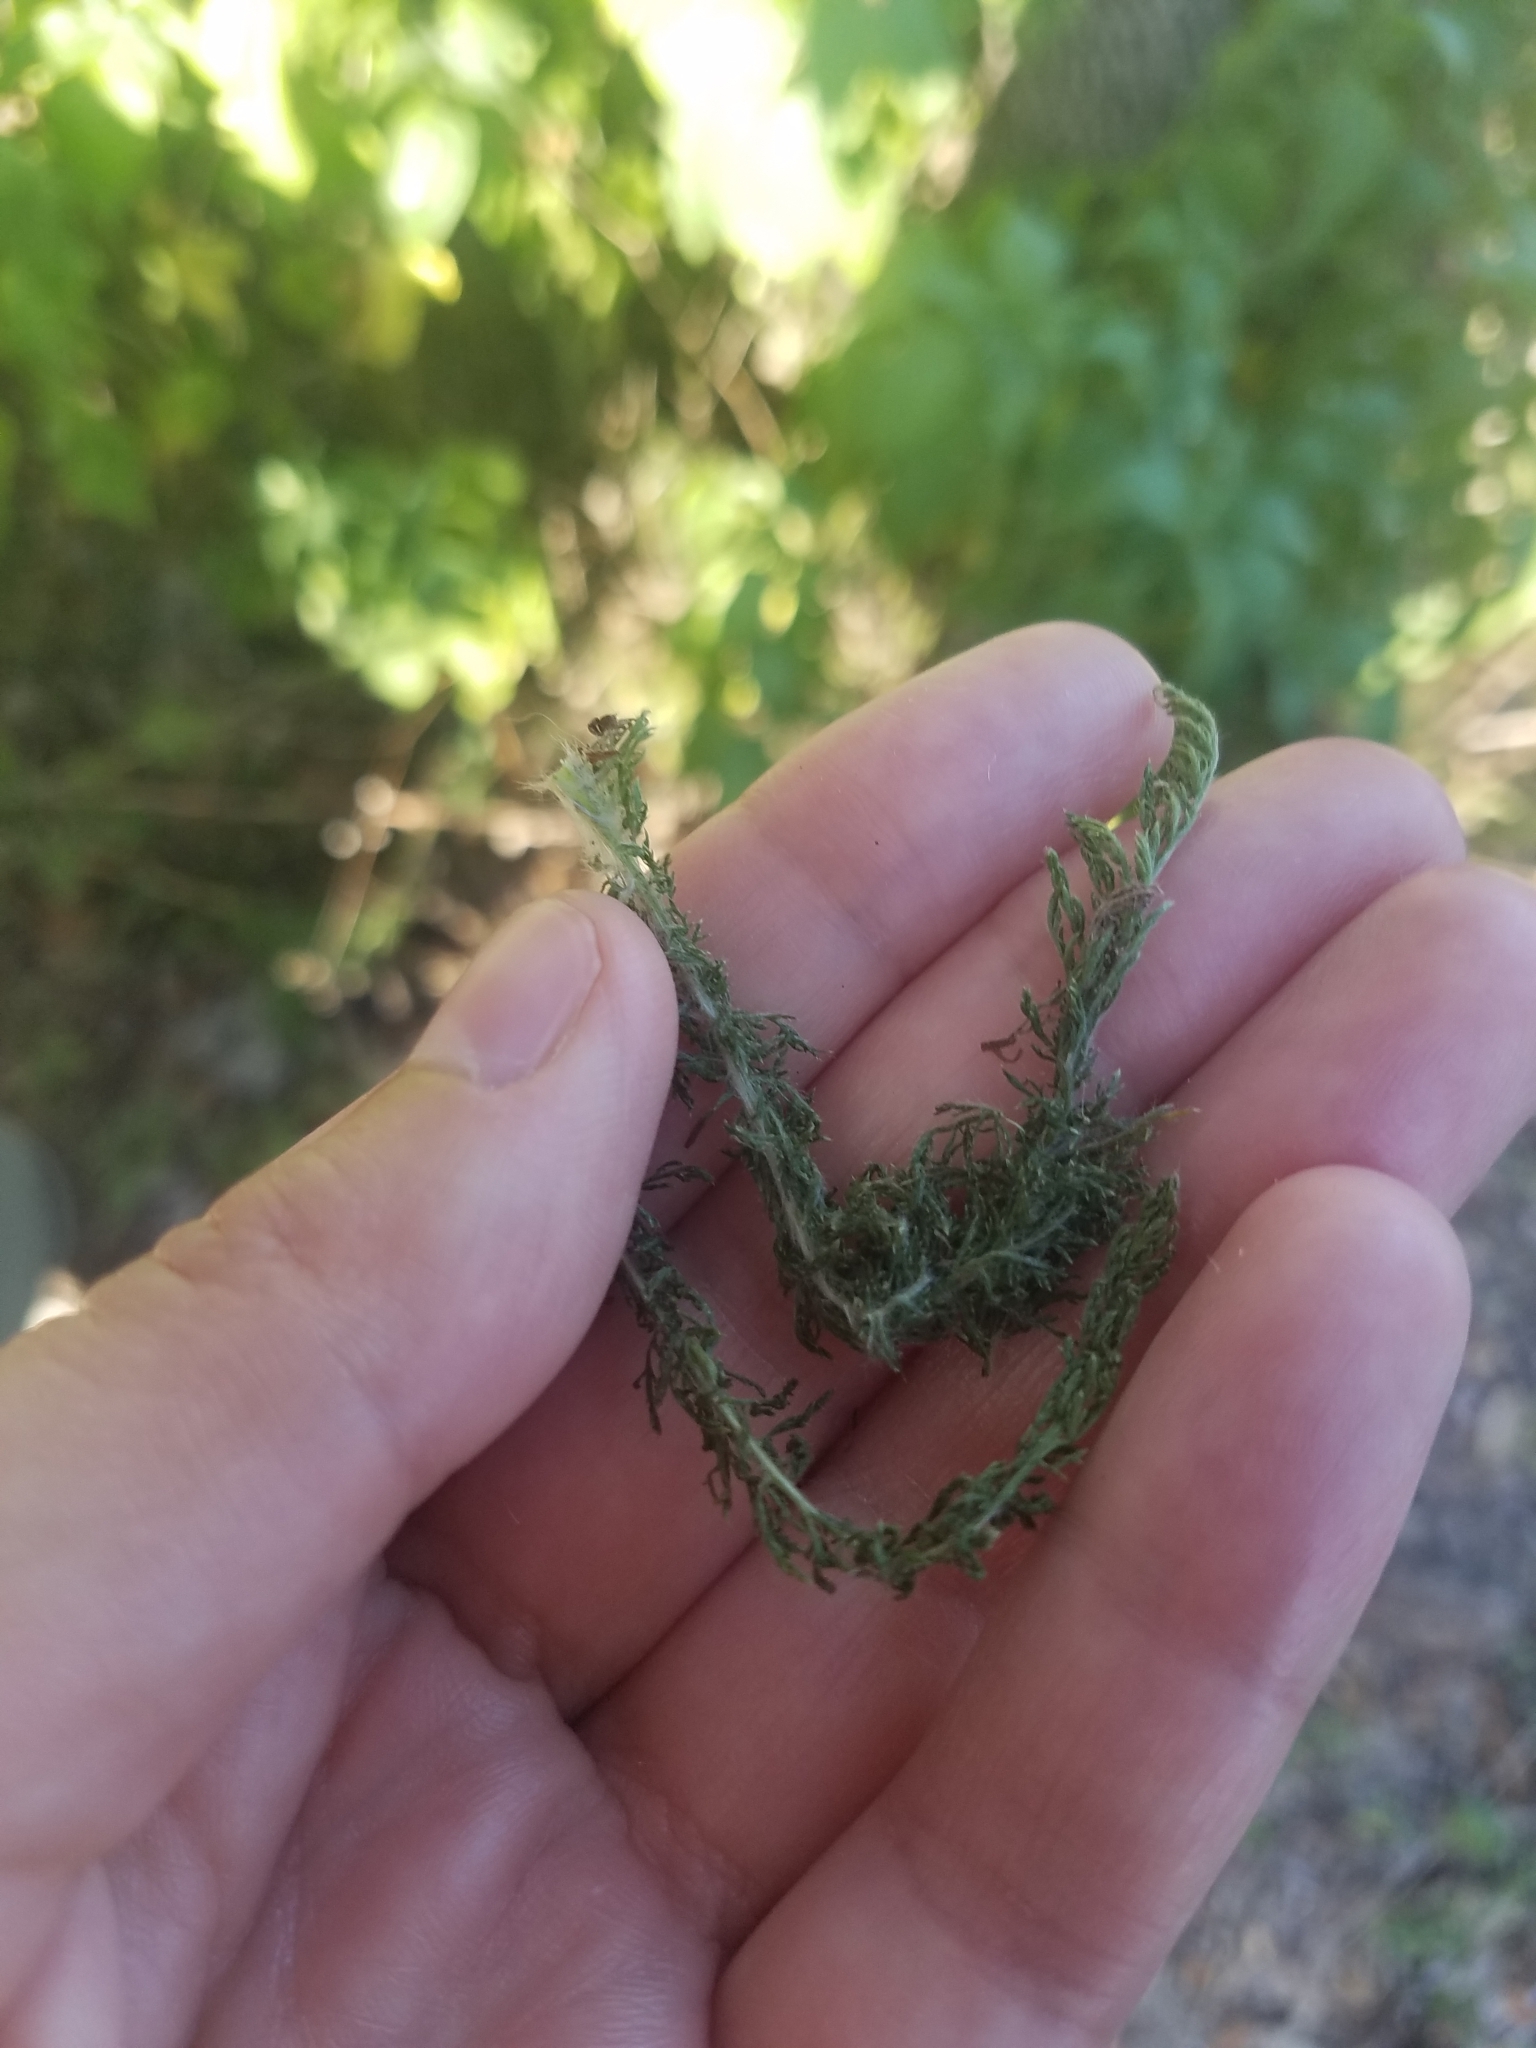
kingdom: Plantae
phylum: Tracheophyta
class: Magnoliopsida
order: Asterales
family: Asteraceae
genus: Achillea
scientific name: Achillea millefolium
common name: Yarrow
